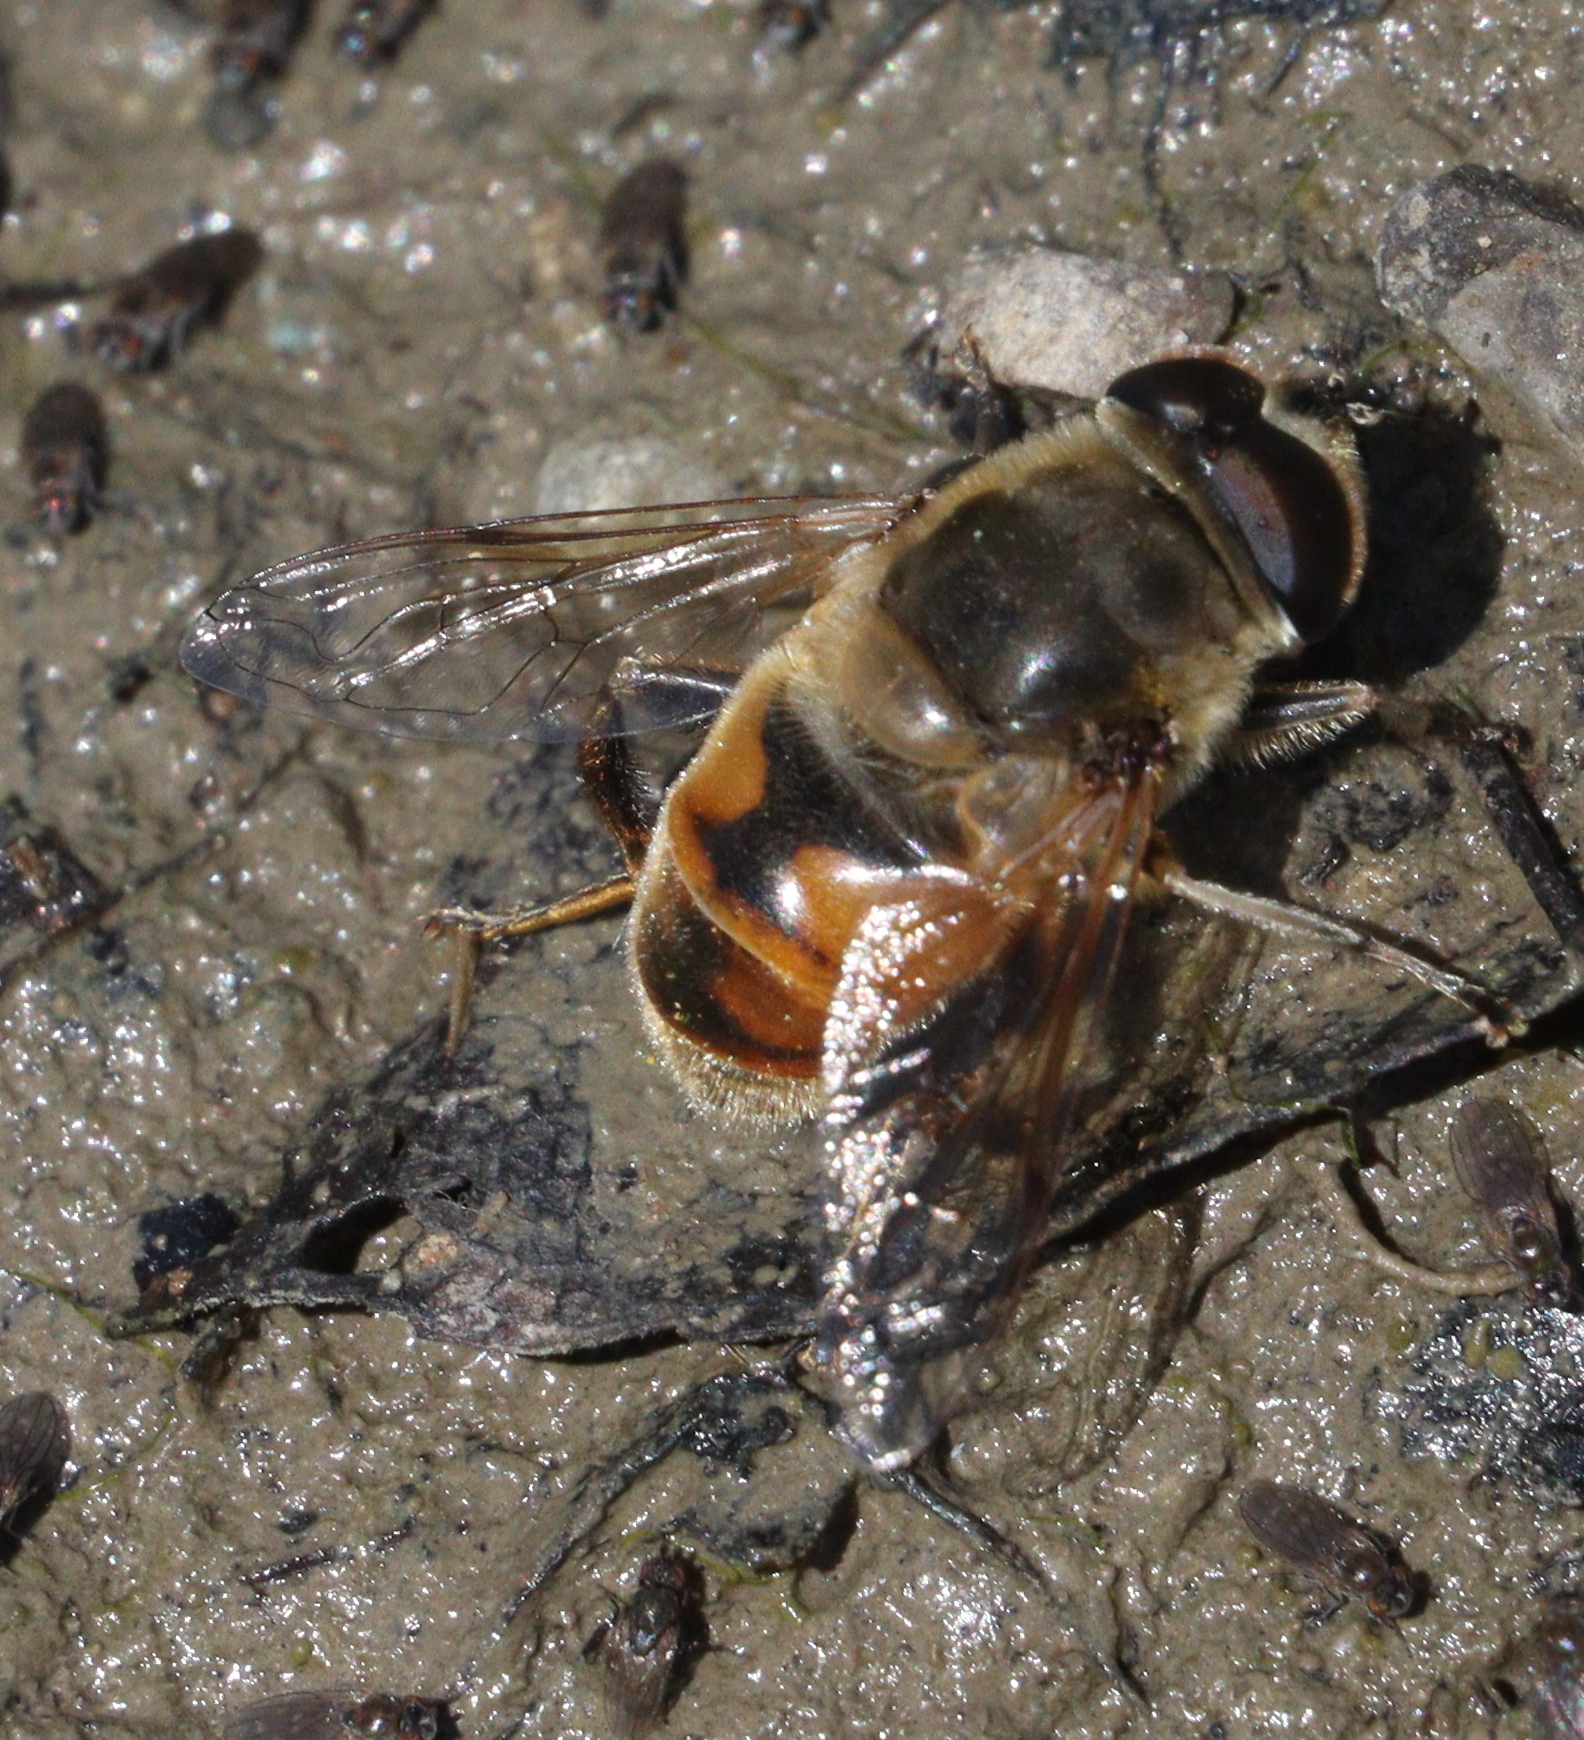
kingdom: Animalia
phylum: Arthropoda
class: Insecta
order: Diptera
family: Syrphidae
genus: Eristalis
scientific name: Eristalis tenax
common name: Drone fly
